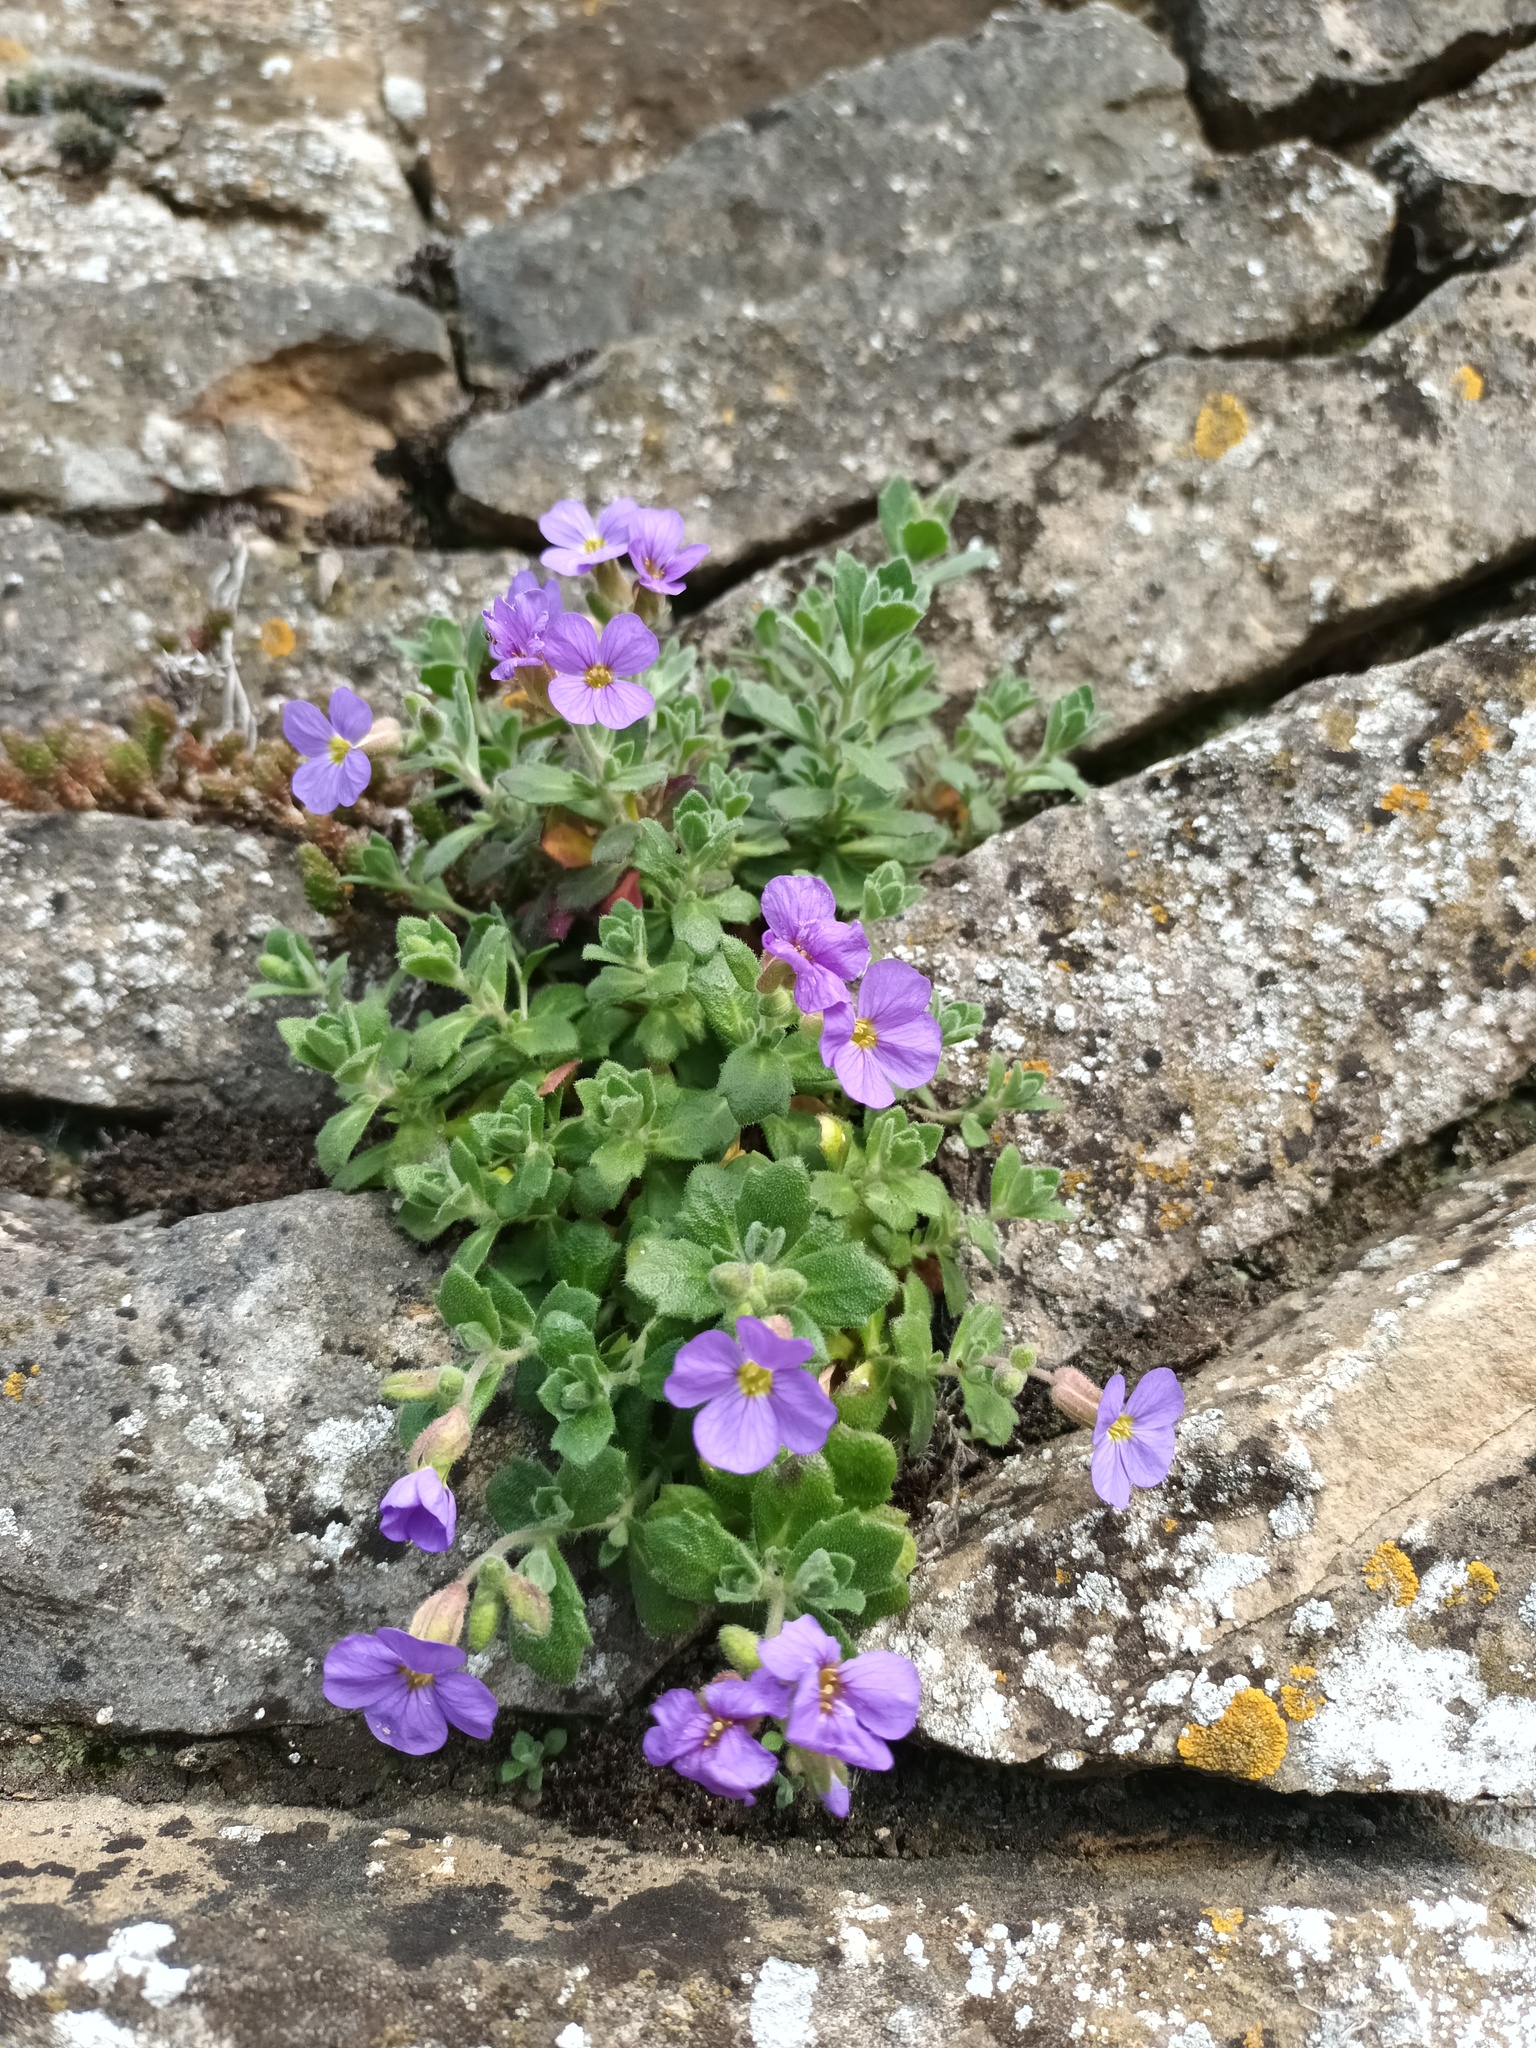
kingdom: Plantae
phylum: Tracheophyta
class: Magnoliopsida
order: Brassicales
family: Brassicaceae
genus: Aubrieta
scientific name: Aubrieta deltoidea
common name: Aubretia
